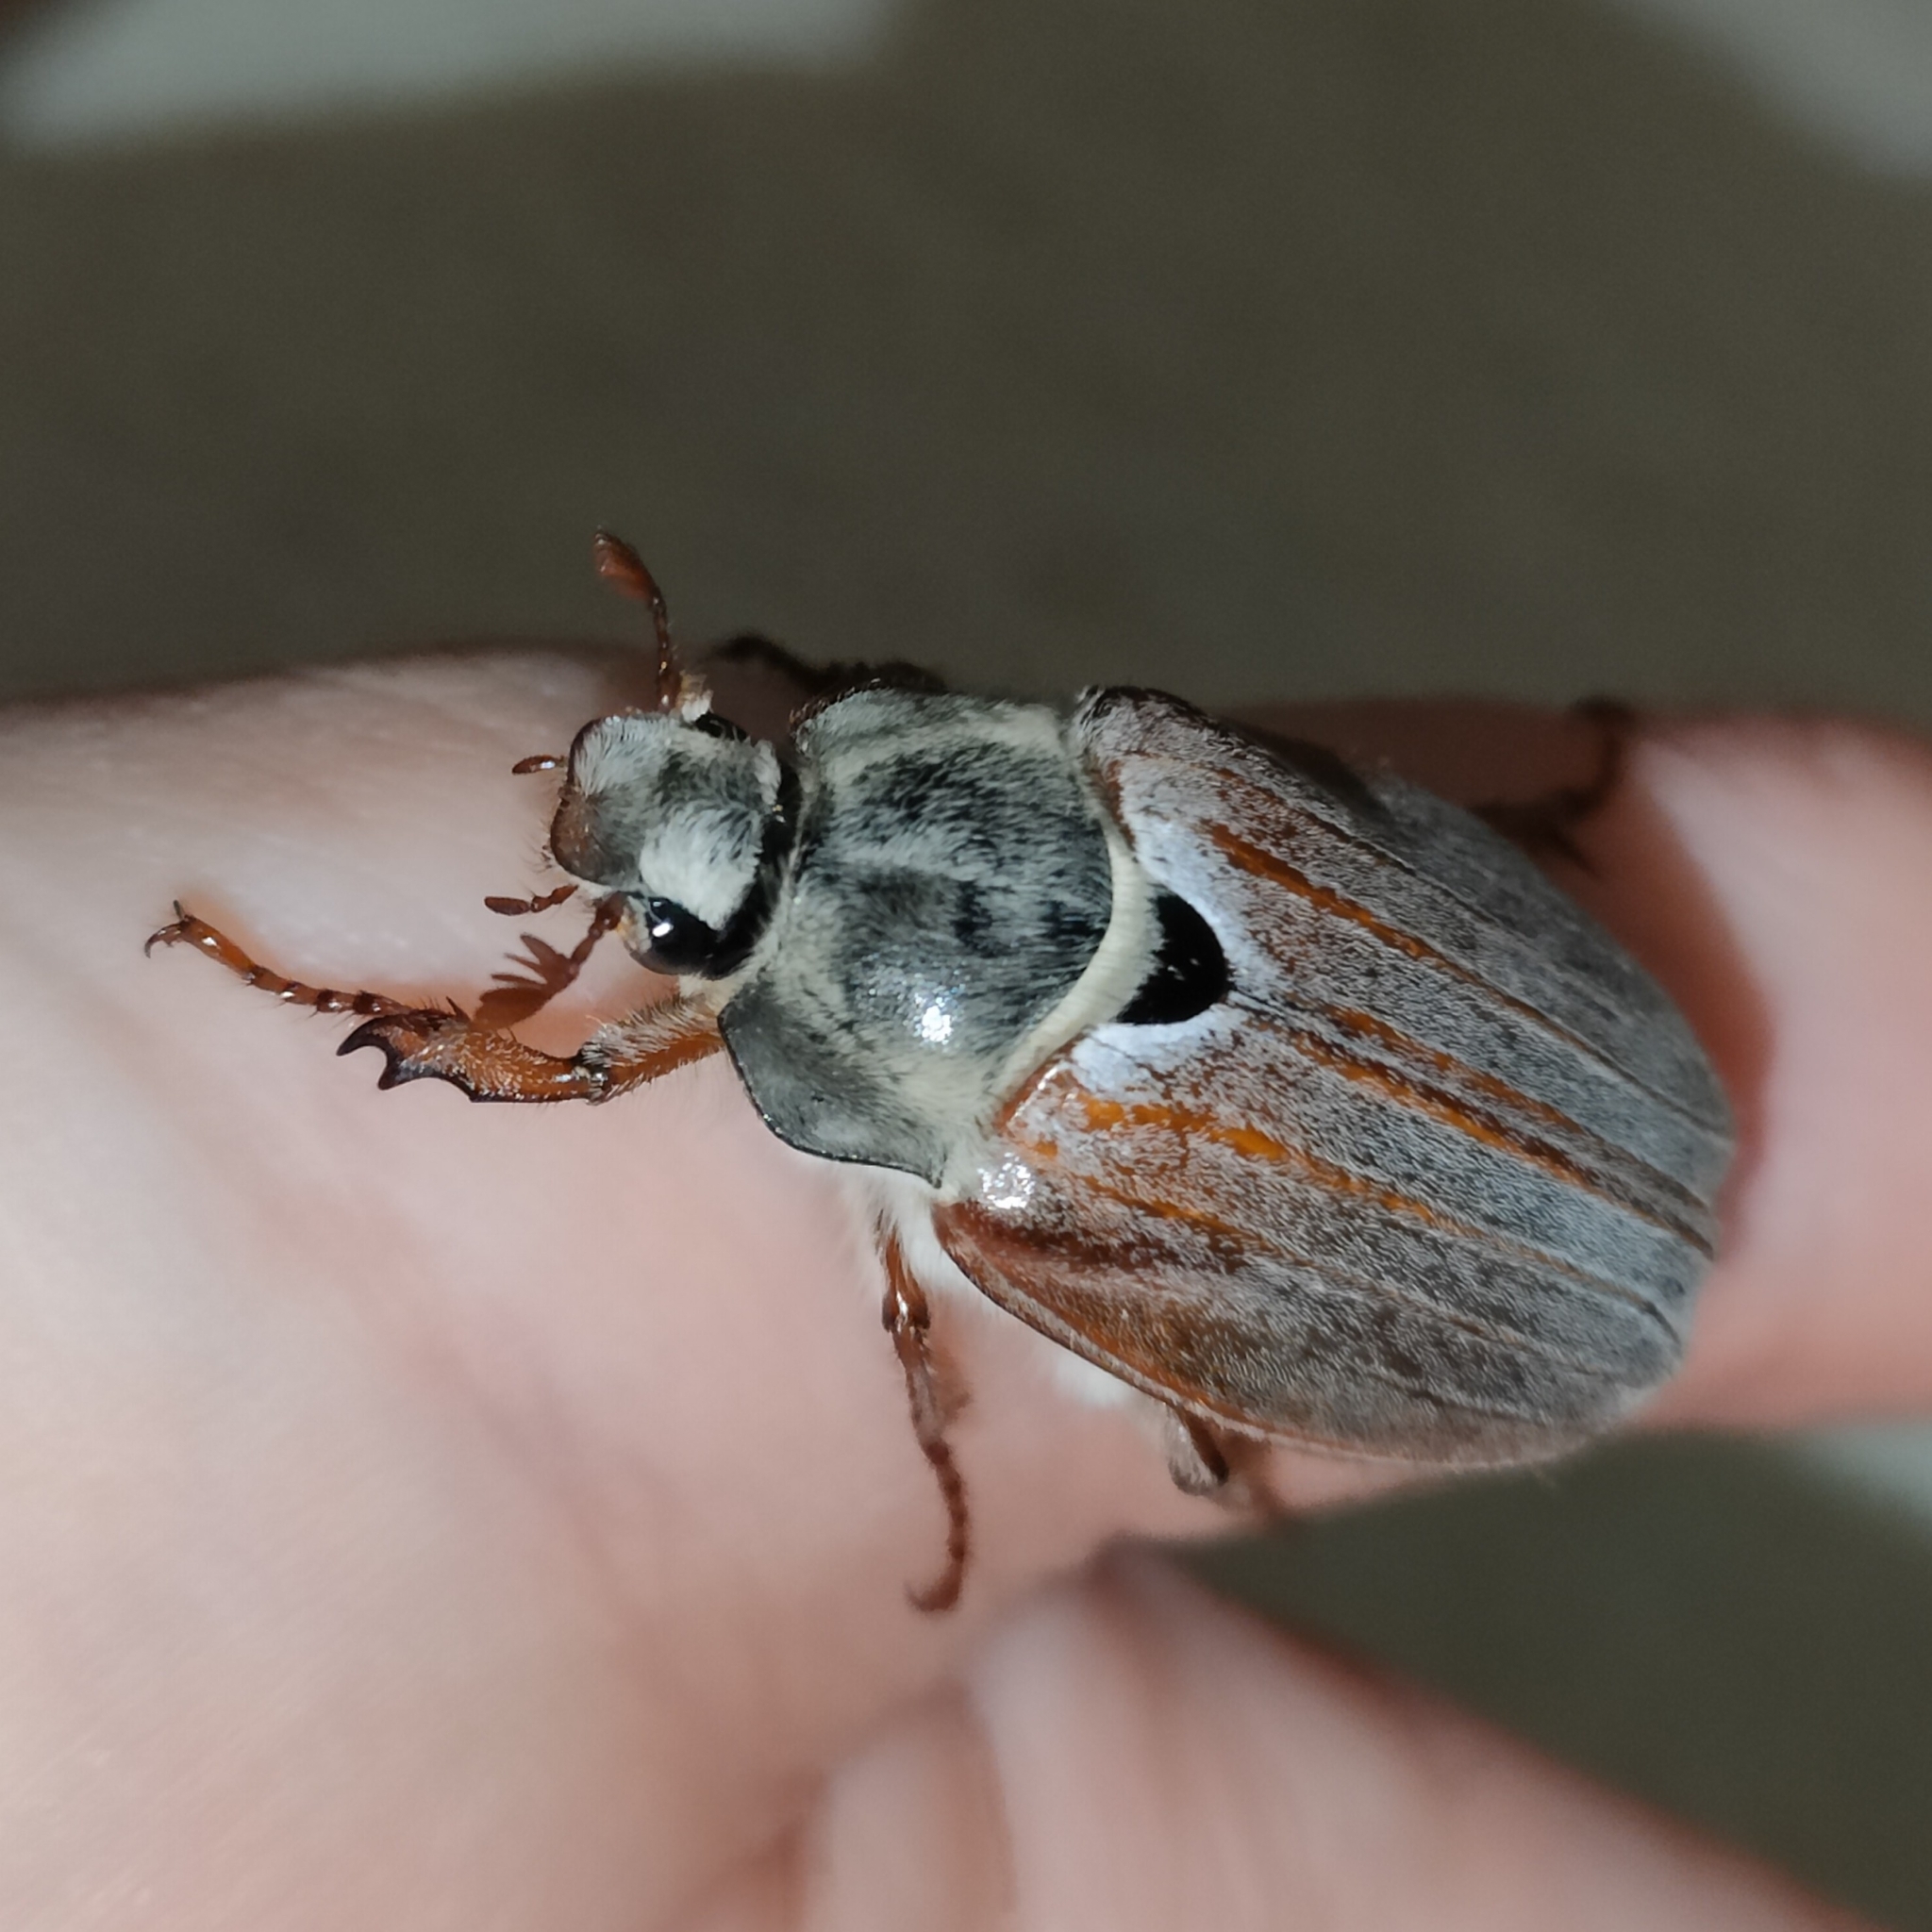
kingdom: Animalia
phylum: Arthropoda
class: Insecta
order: Coleoptera
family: Scarabaeidae
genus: Melolontha
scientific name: Melolontha melolontha
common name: Cockchafer maybeetle
